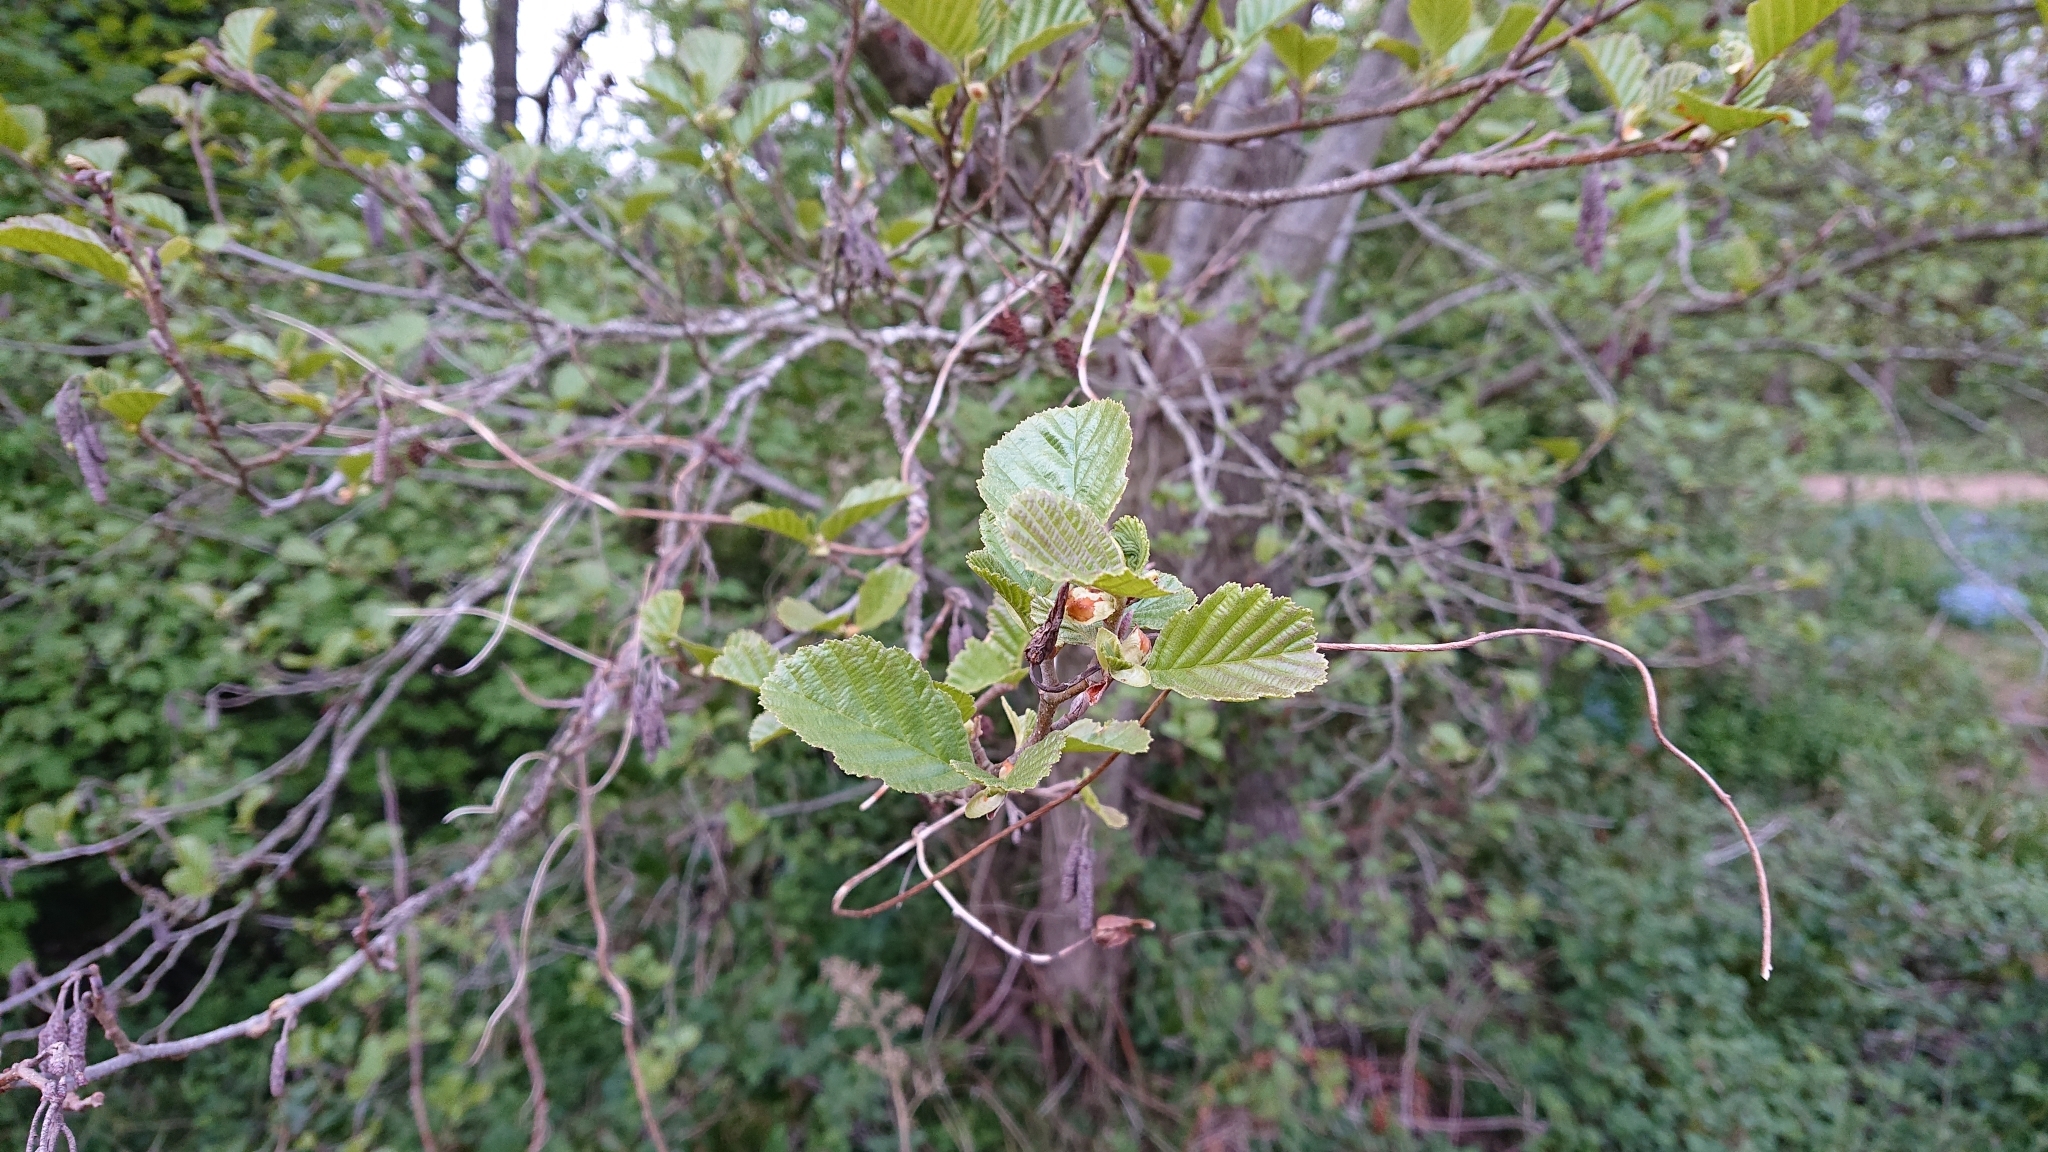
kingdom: Plantae
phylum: Tracheophyta
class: Magnoliopsida
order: Fagales
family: Betulaceae
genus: Alnus
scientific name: Alnus glutinosa
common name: Black alder
